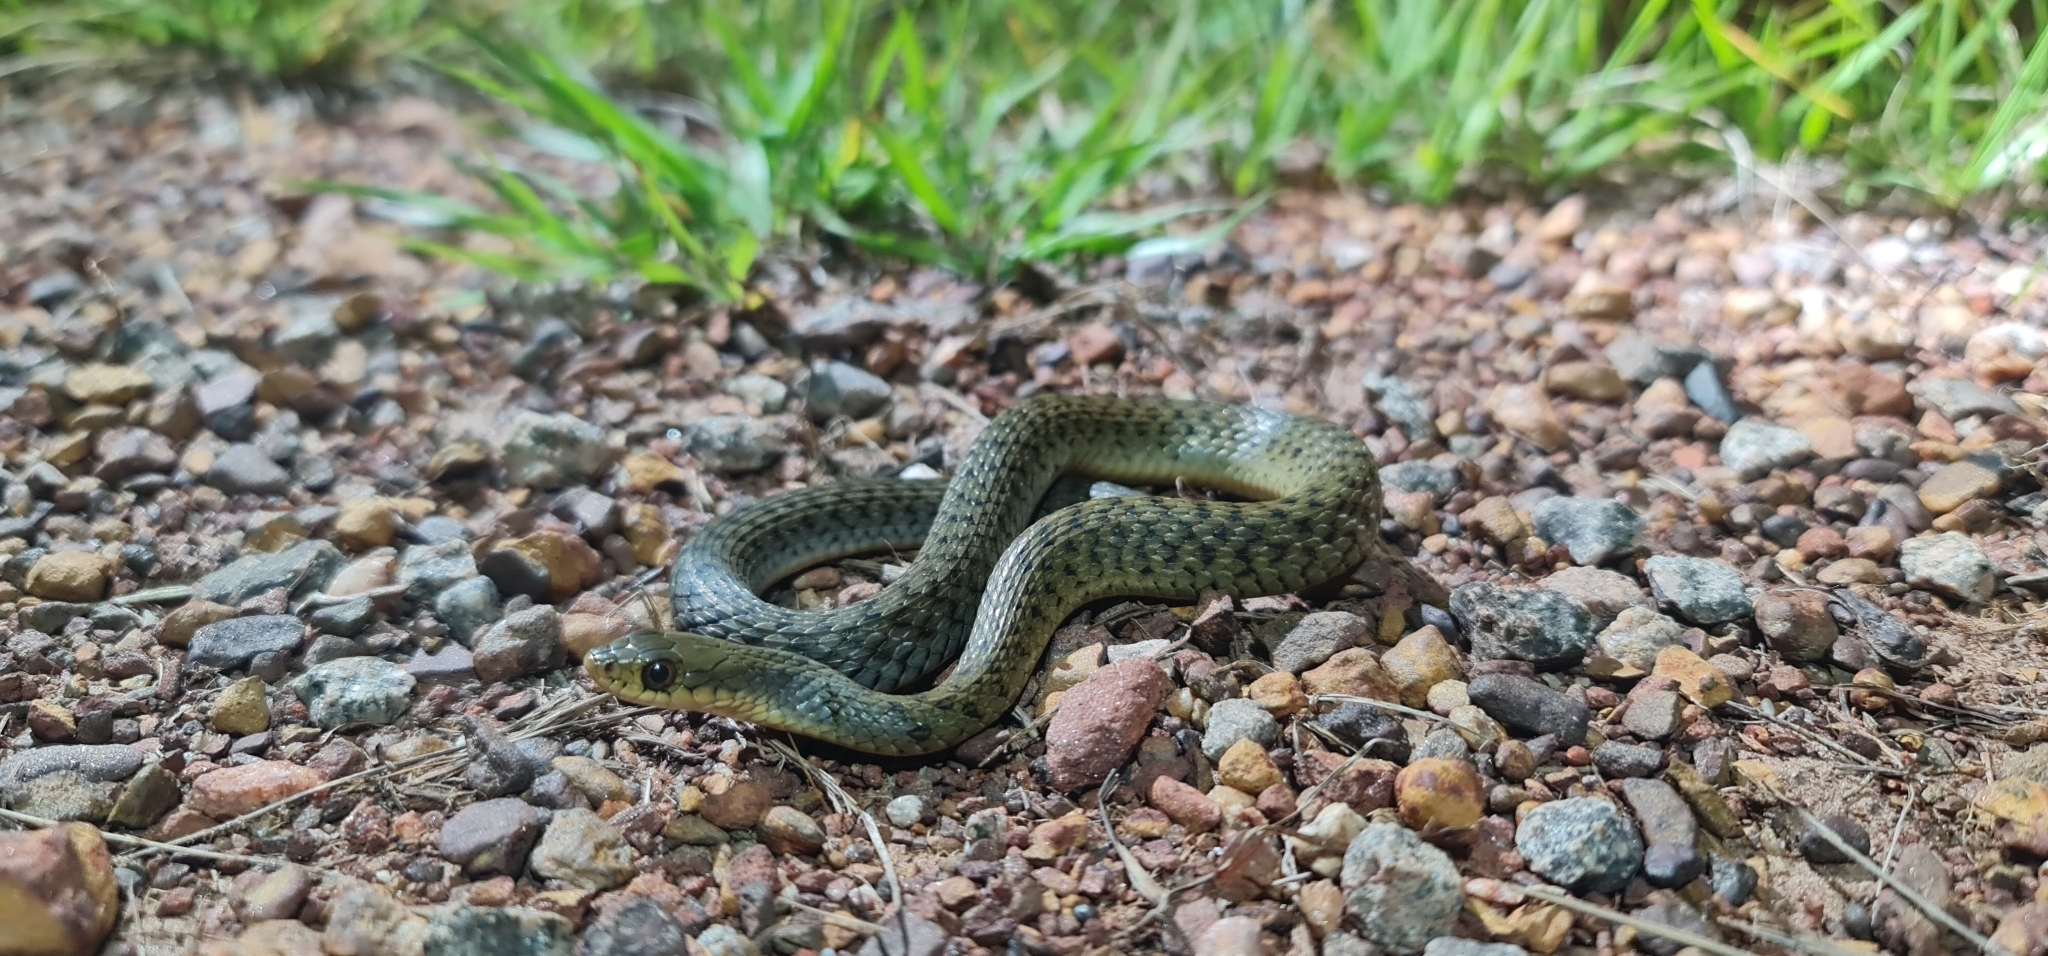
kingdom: Animalia
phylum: Chordata
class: Squamata
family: Colubridae
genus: Tropidonophis
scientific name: Tropidonophis mairii
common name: Common keelback
